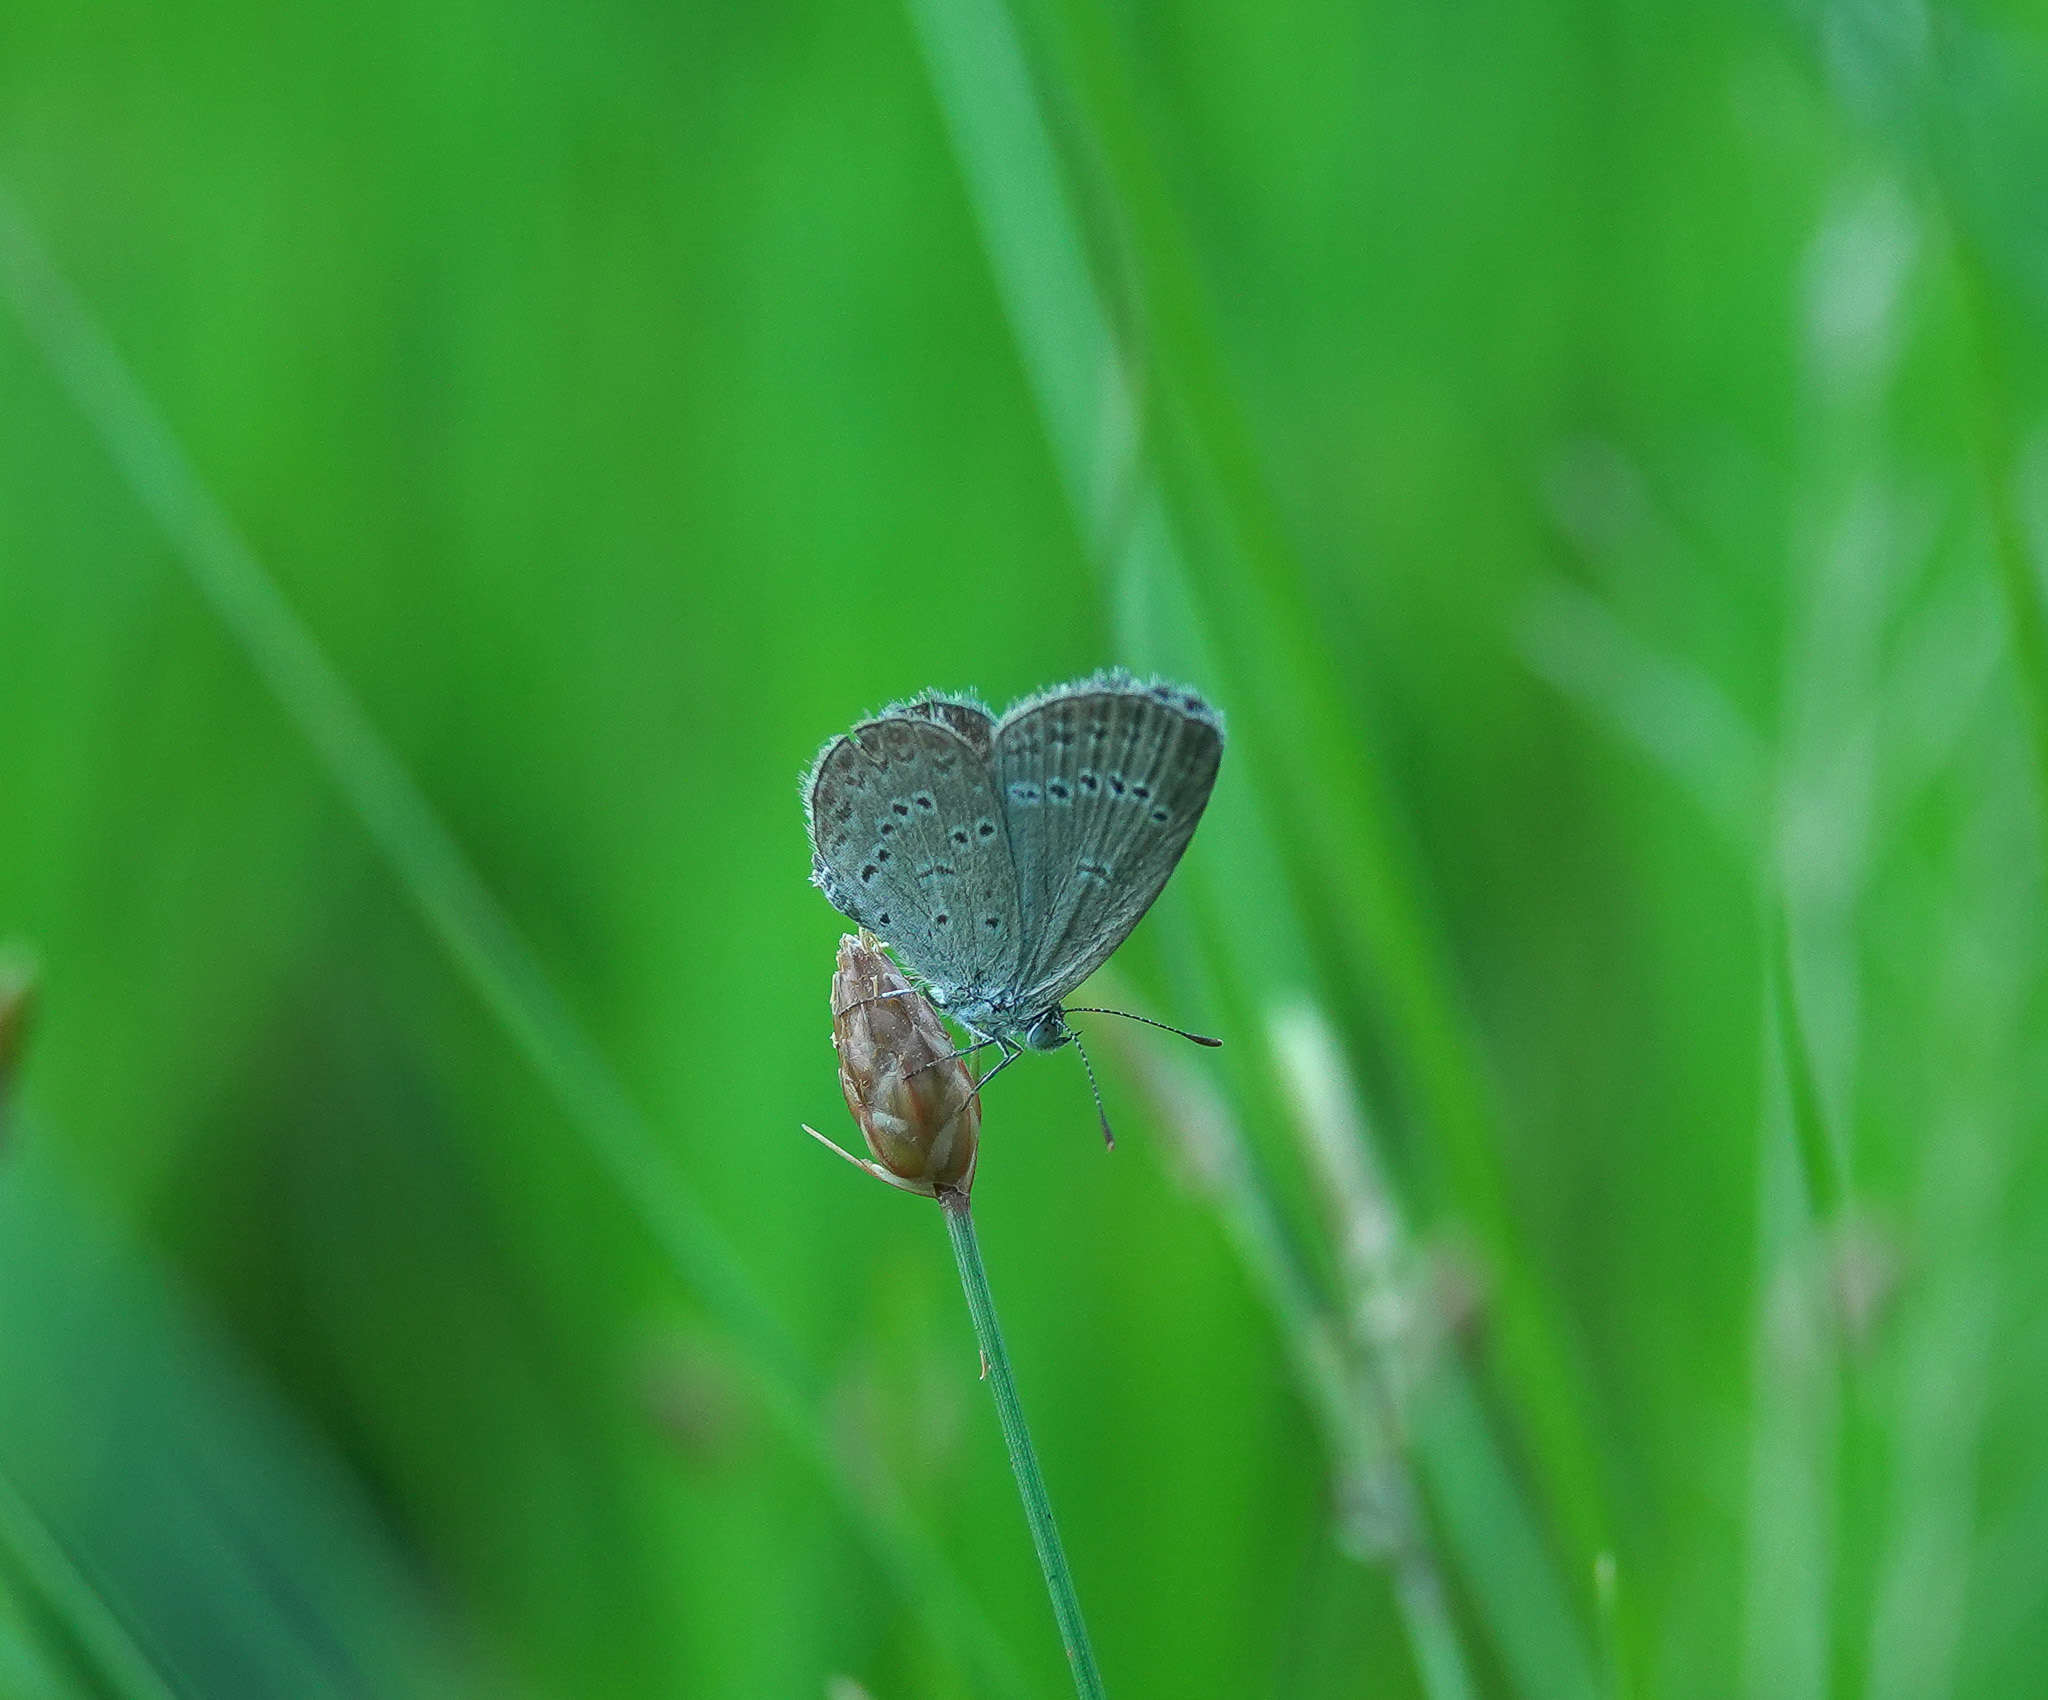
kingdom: Animalia
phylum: Arthropoda
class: Insecta
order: Lepidoptera
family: Lycaenidae
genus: Zizina
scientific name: Zizina otis
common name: Lesser grass blue
